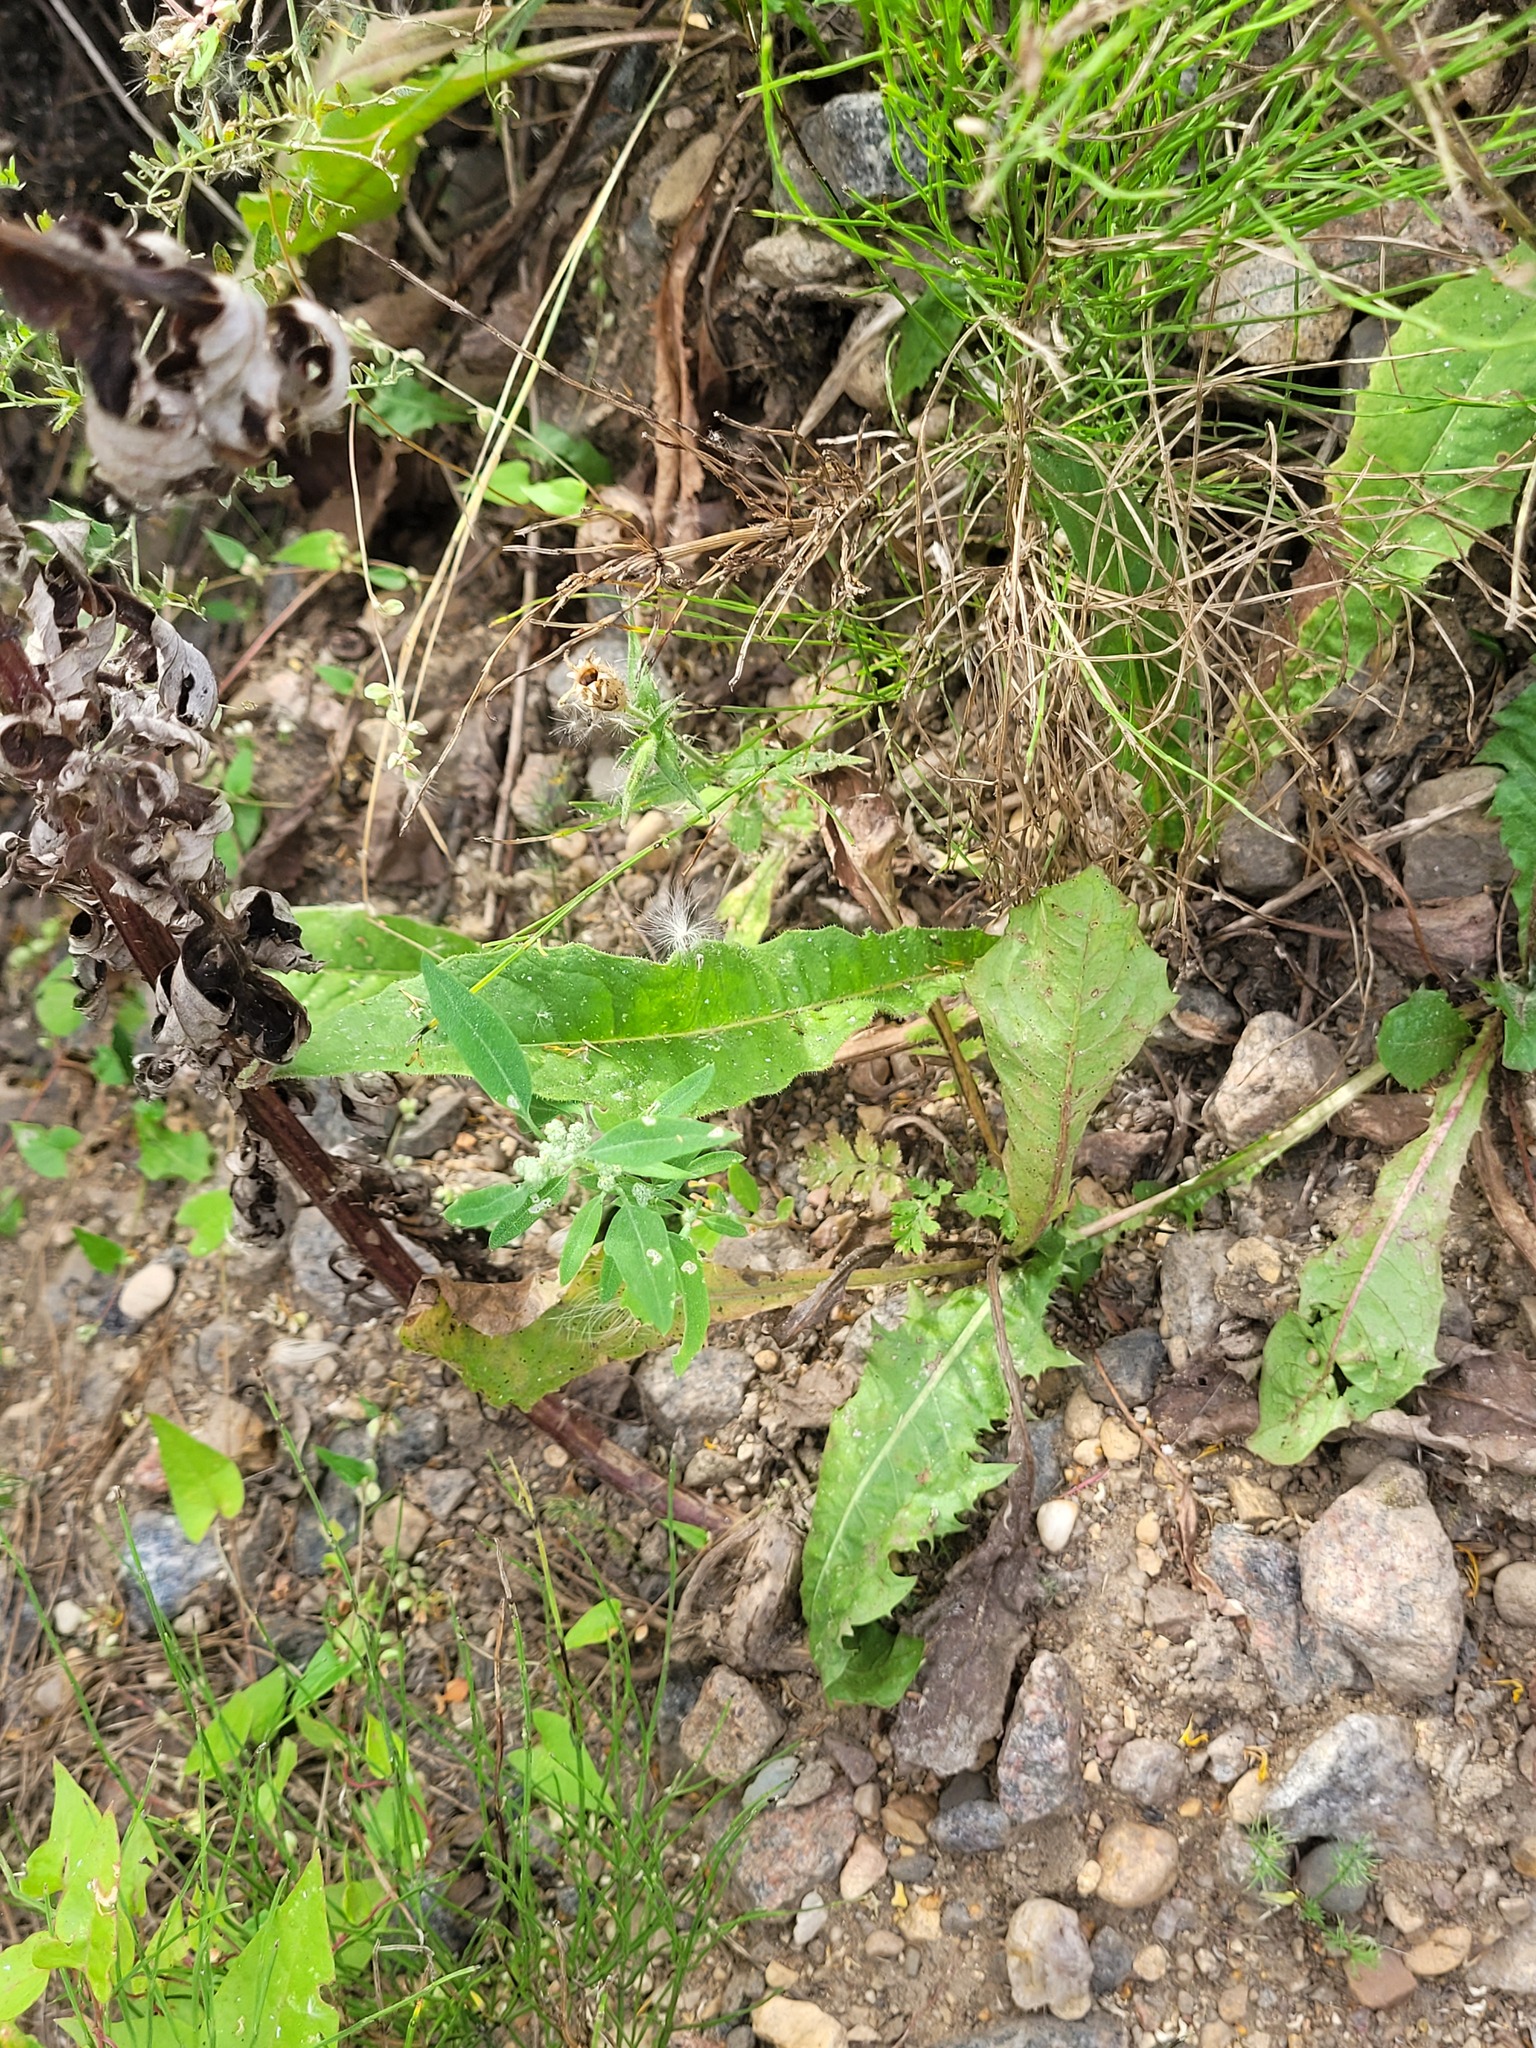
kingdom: Plantae
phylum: Tracheophyta
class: Magnoliopsida
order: Caryophyllales
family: Amaranthaceae
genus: Chenopodium
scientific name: Chenopodium album
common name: Fat-hen
